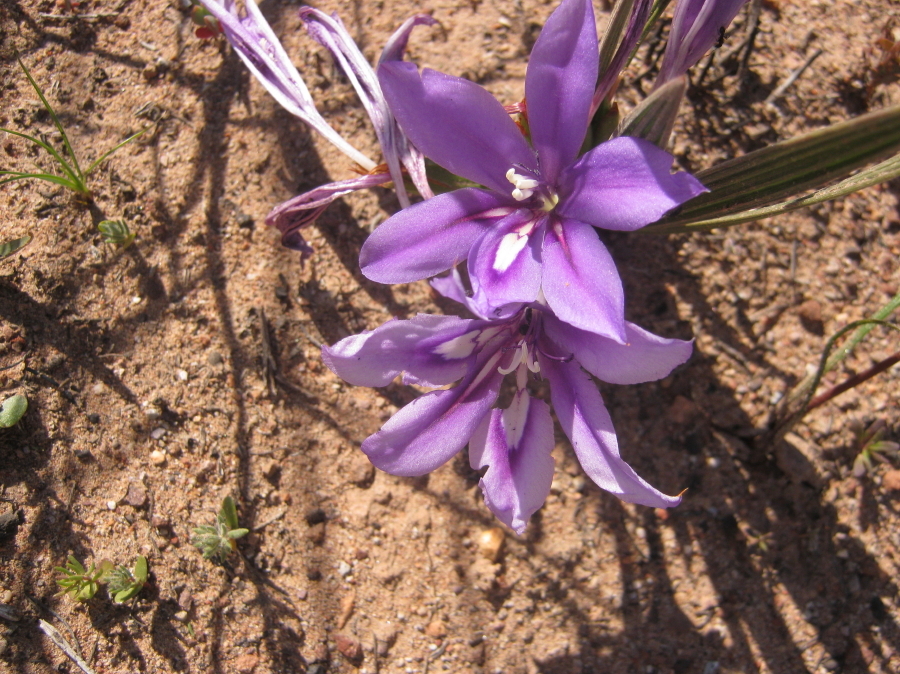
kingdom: Plantae
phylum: Tracheophyta
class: Liliopsida
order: Asparagales
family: Iridaceae
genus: Babiana
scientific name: Babiana sambucina
